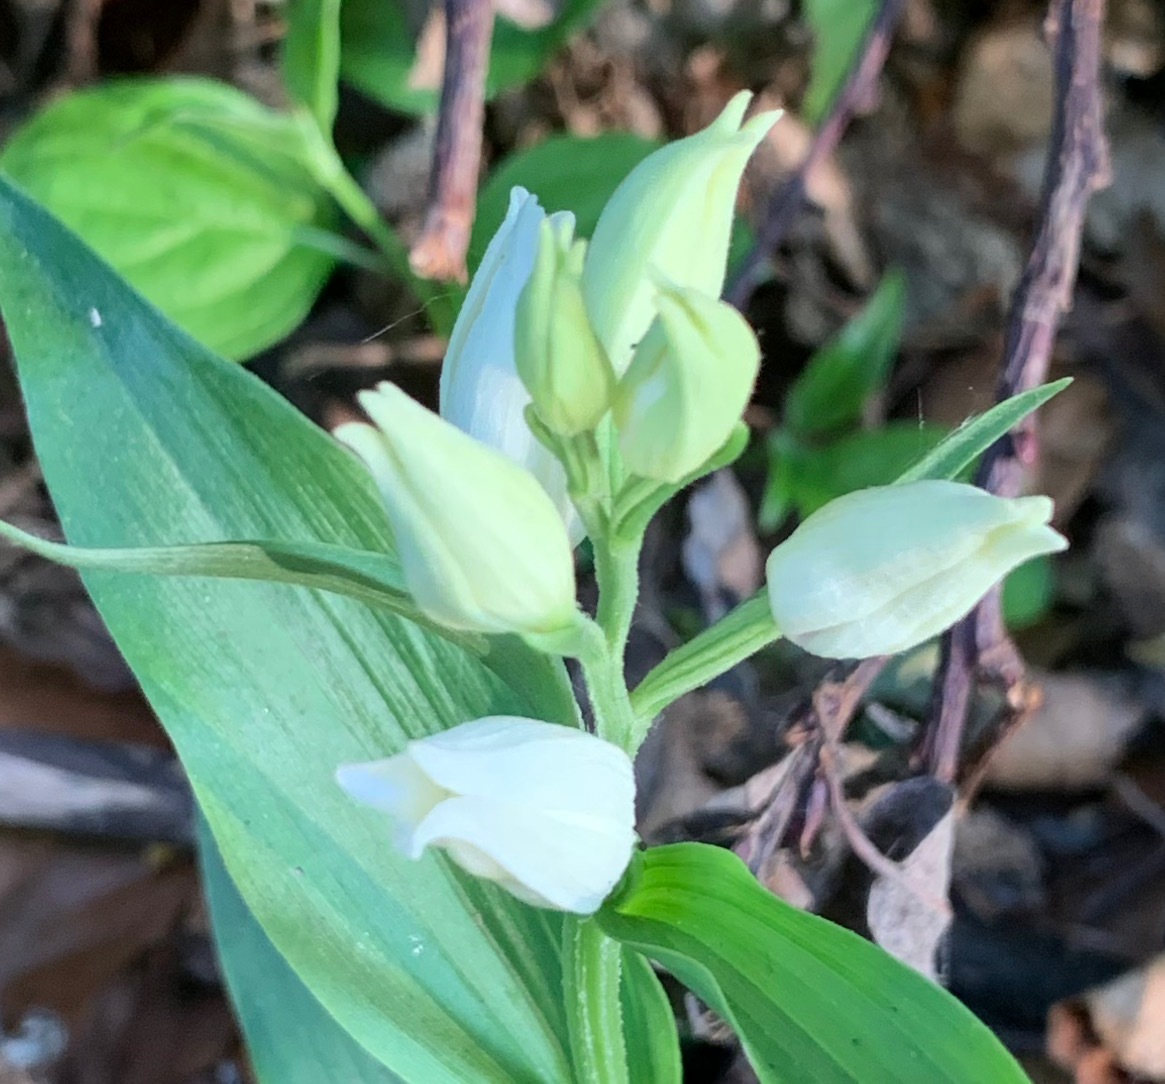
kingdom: Plantae
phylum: Tracheophyta
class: Liliopsida
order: Asparagales
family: Orchidaceae
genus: Cephalanthera
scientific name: Cephalanthera damasonium
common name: White helleborine
